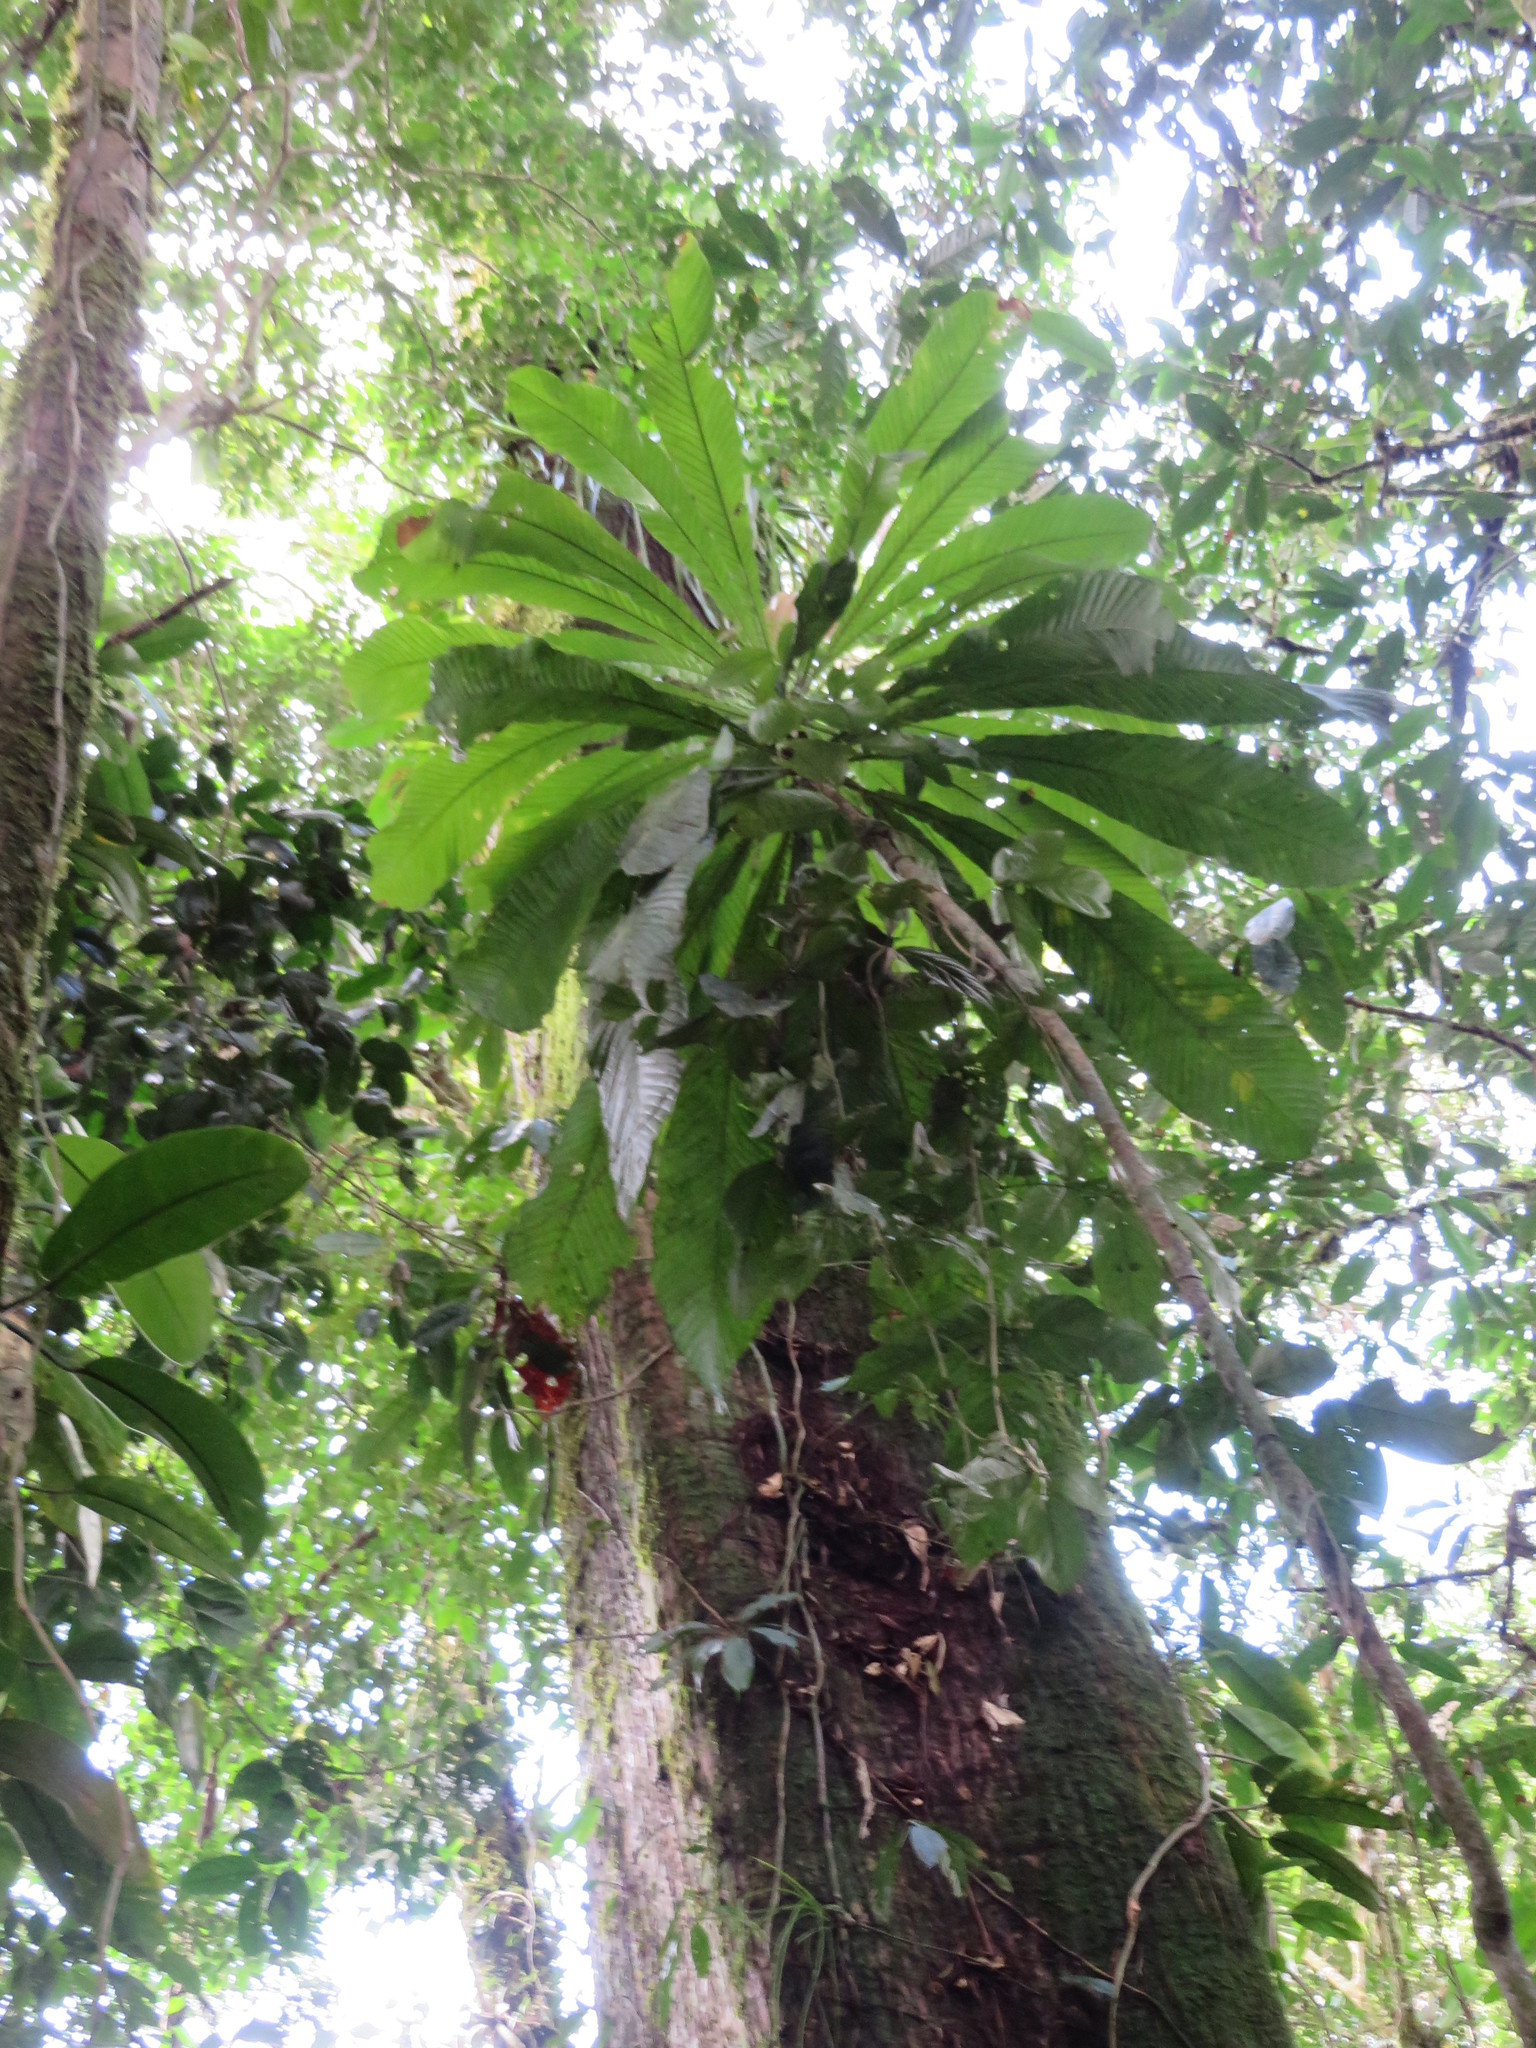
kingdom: Plantae
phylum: Tracheophyta
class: Magnoliopsida
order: Ericales
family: Lecythidaceae
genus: Gustavia
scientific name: Gustavia longifolia
